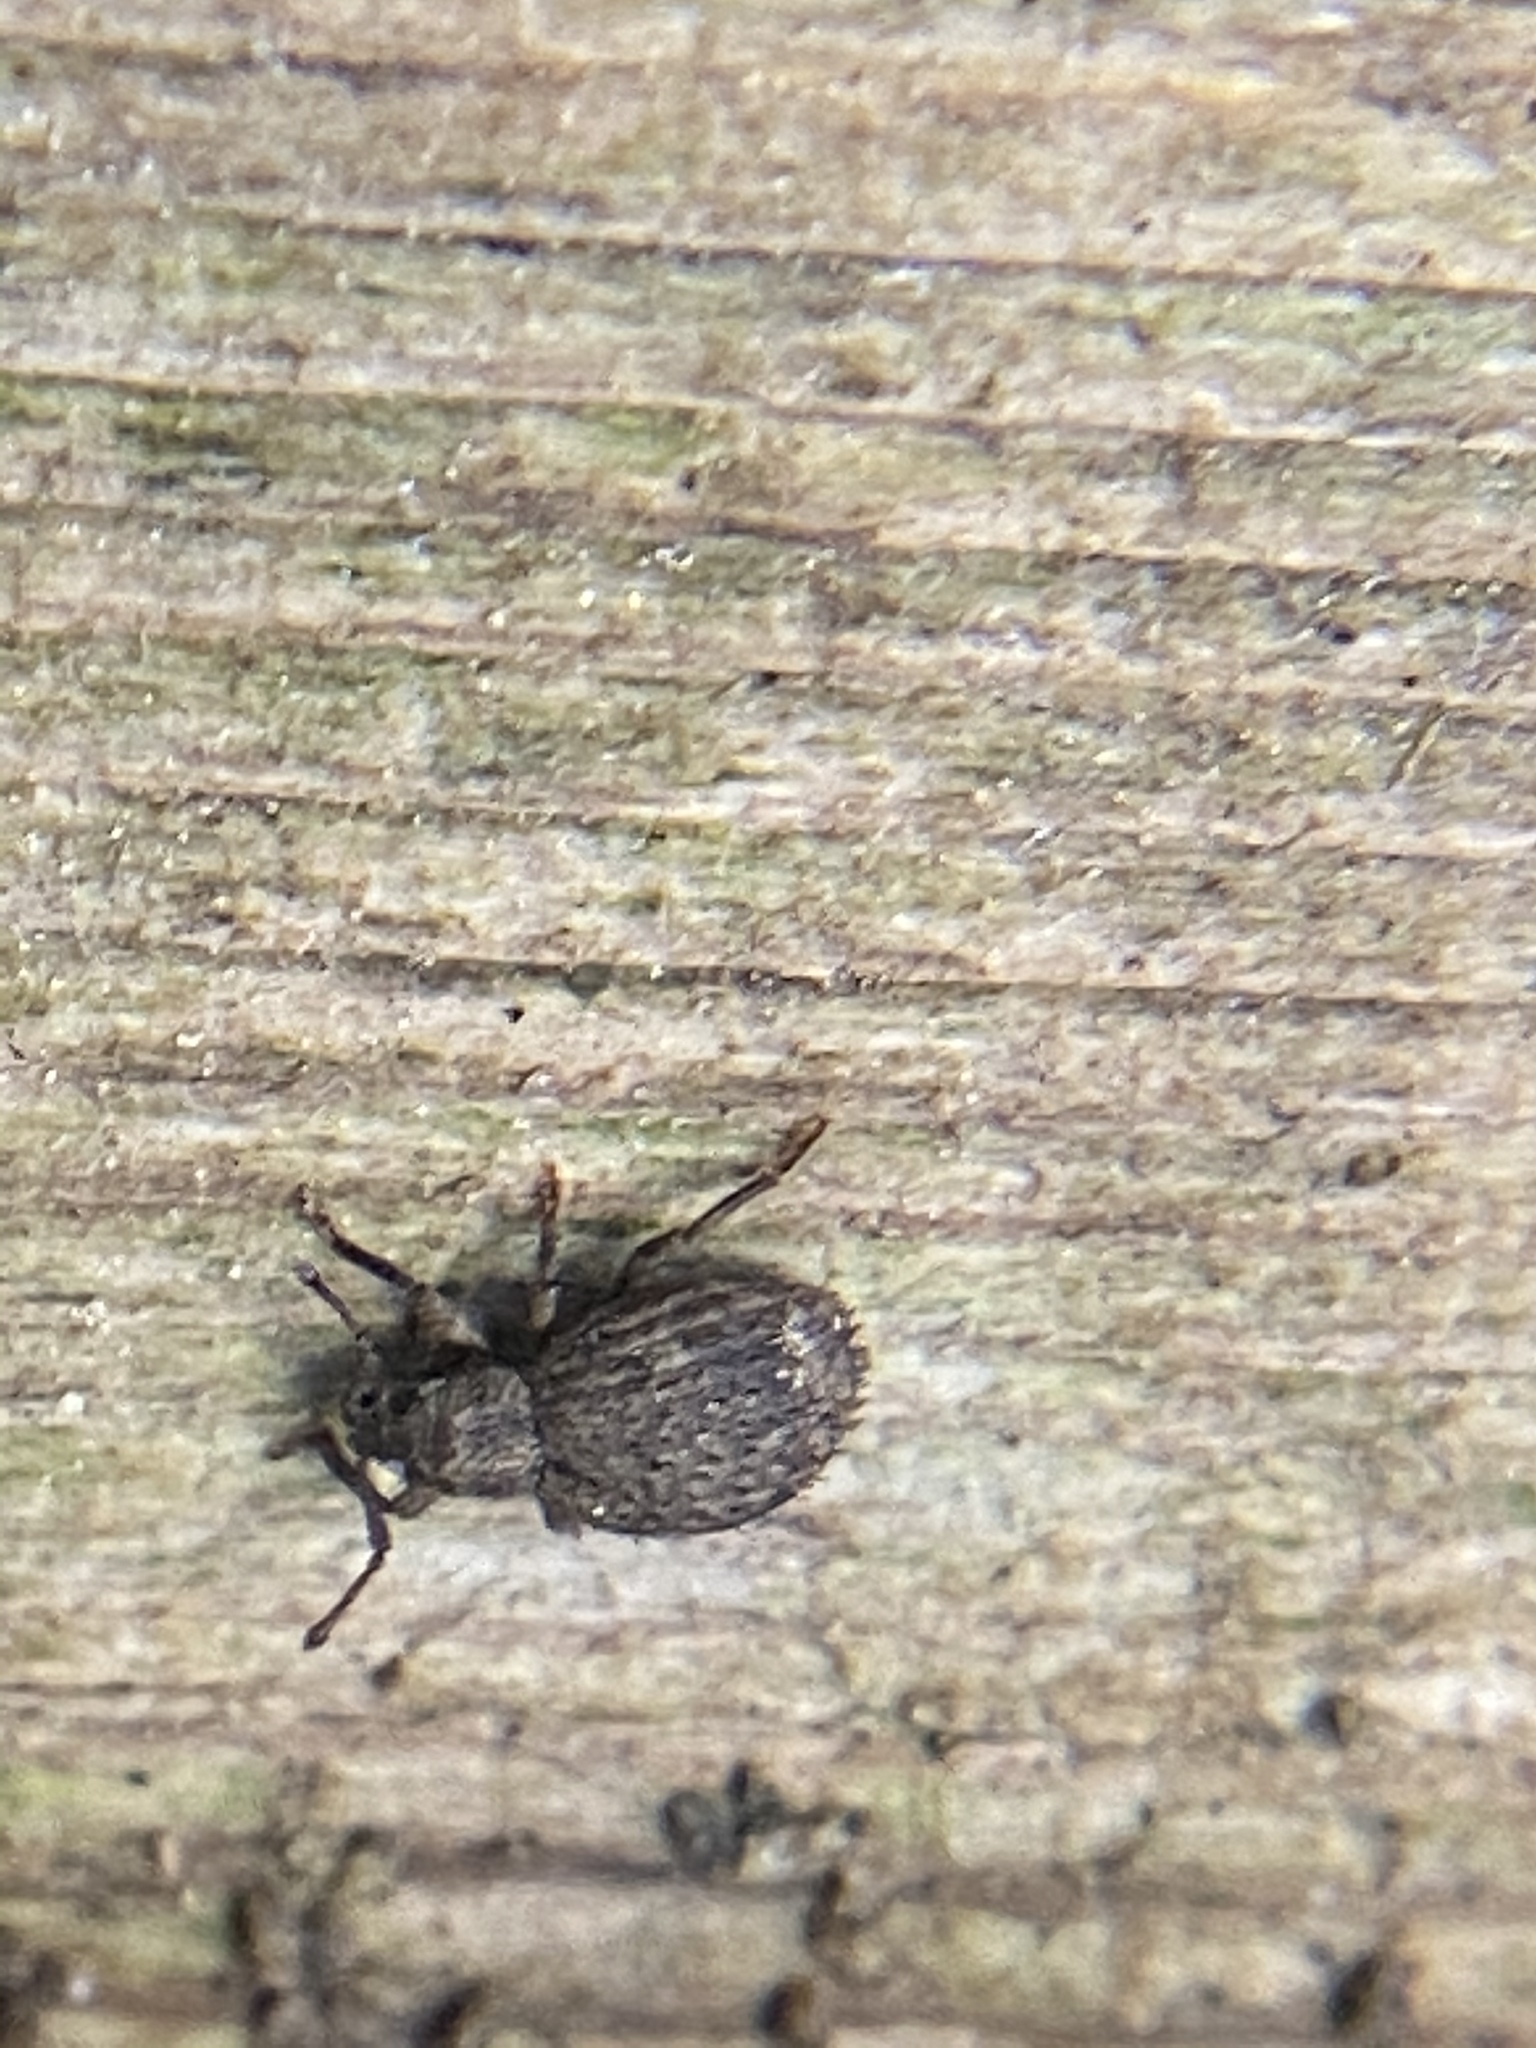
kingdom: Animalia
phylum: Arthropoda
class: Insecta
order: Coleoptera
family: Curculionidae
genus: Myosides
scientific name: Myosides seriehispidus
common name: Broadnosed weevil
